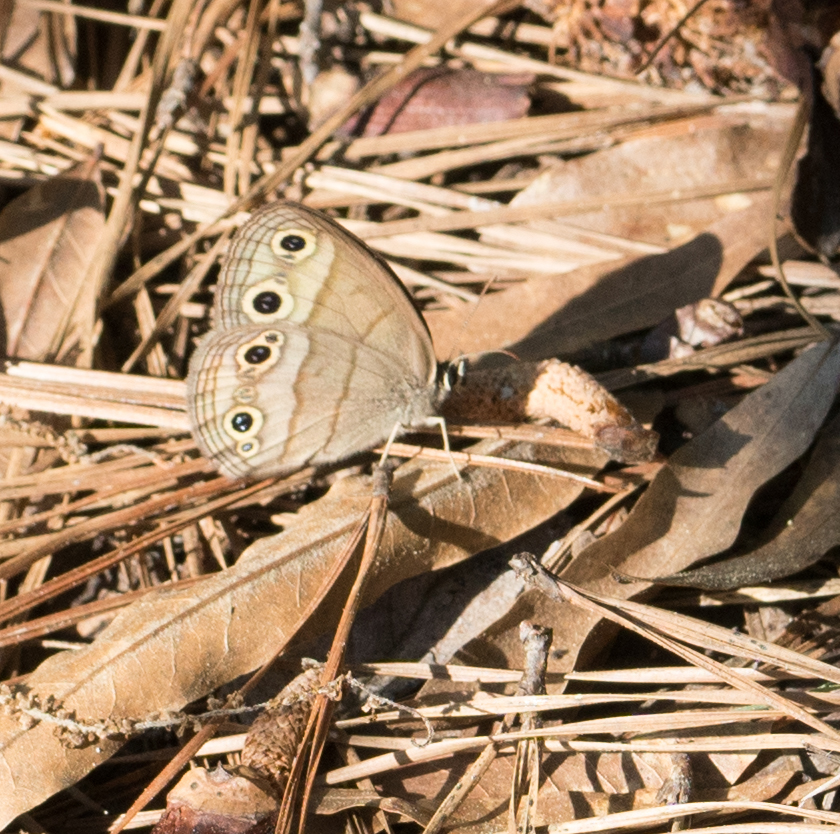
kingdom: Animalia
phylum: Arthropoda
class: Insecta
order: Lepidoptera
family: Nymphalidae
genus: Euptychia
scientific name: Euptychia cymela
